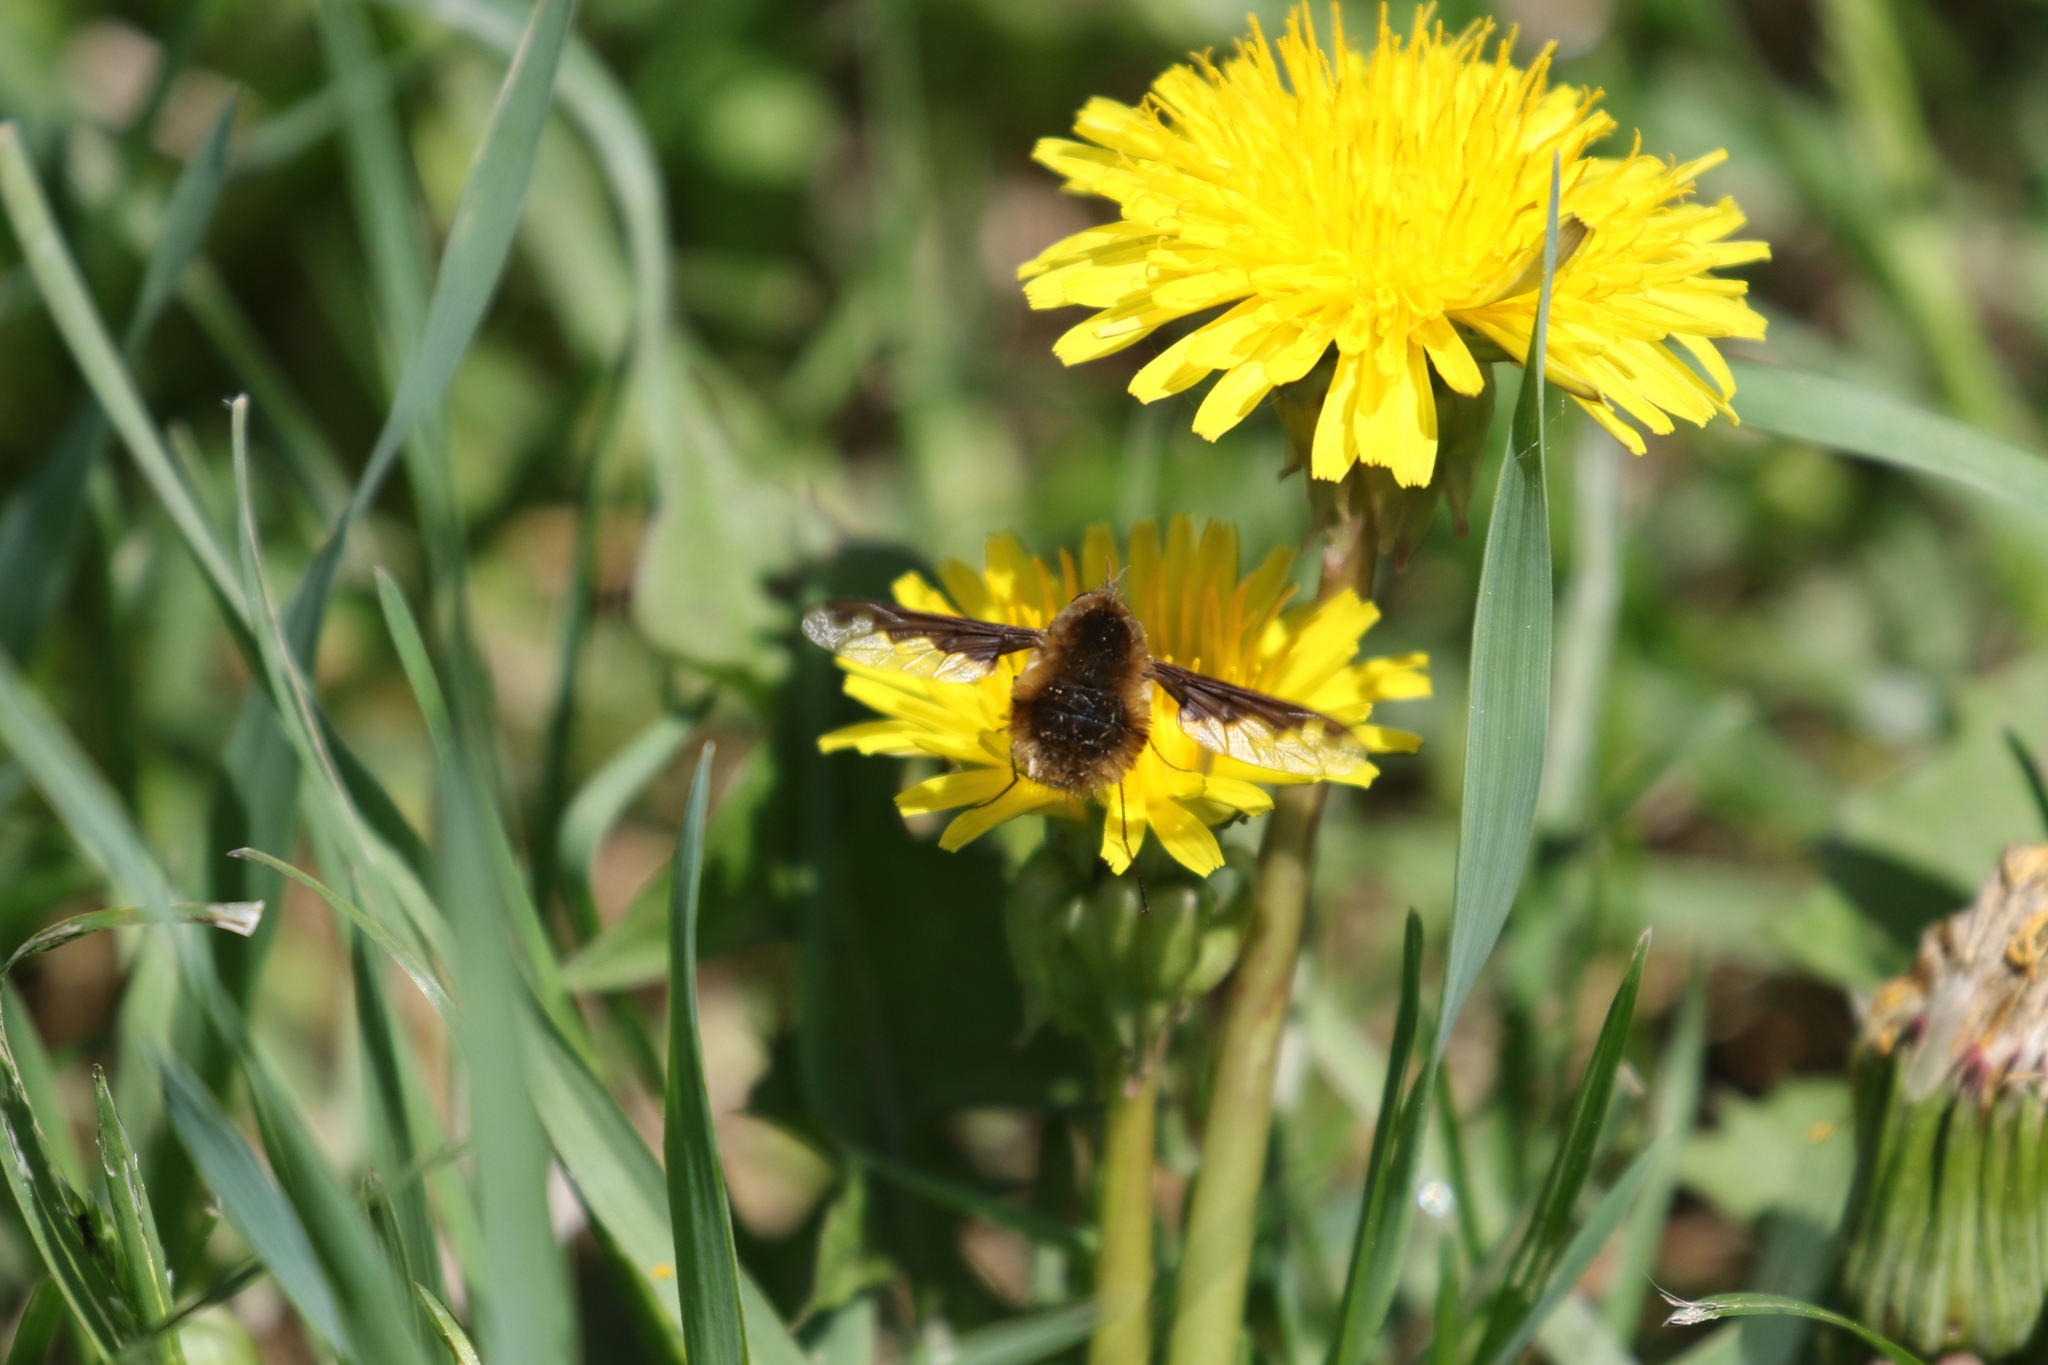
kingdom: Animalia
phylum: Arthropoda
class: Insecta
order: Diptera
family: Bombyliidae
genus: Bombylius
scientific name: Bombylius major
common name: Bee fly
